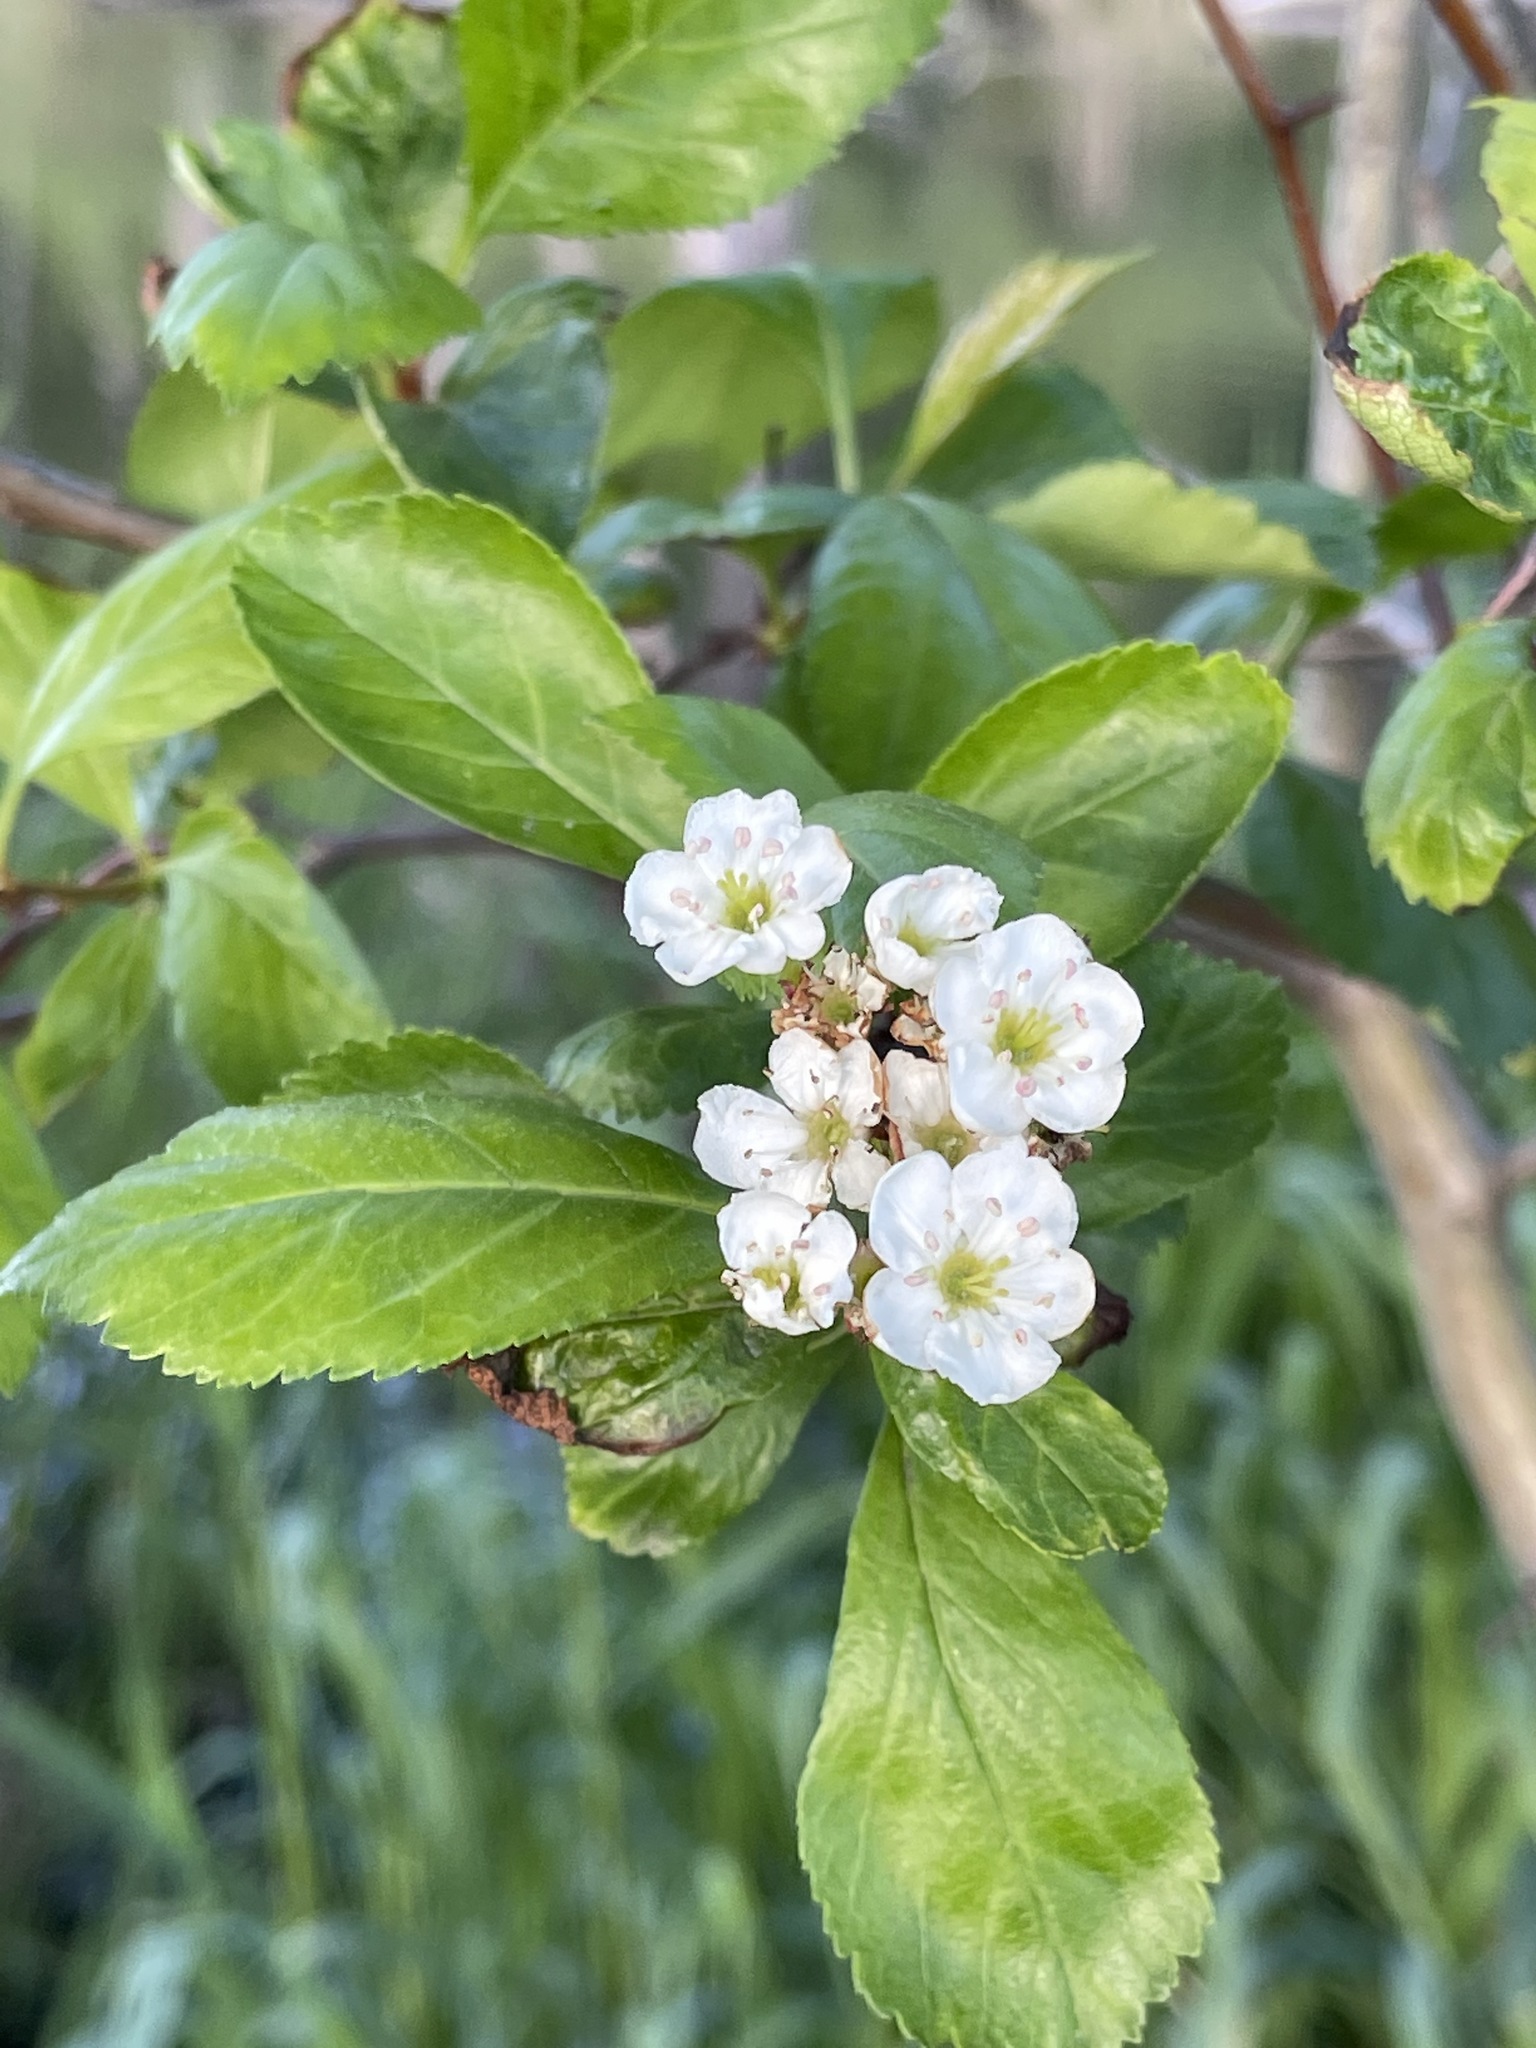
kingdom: Plantae
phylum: Tracheophyta
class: Magnoliopsida
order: Rosales
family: Rosaceae
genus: Crataegus
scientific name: Crataegus douglasii
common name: Black hawthorn
